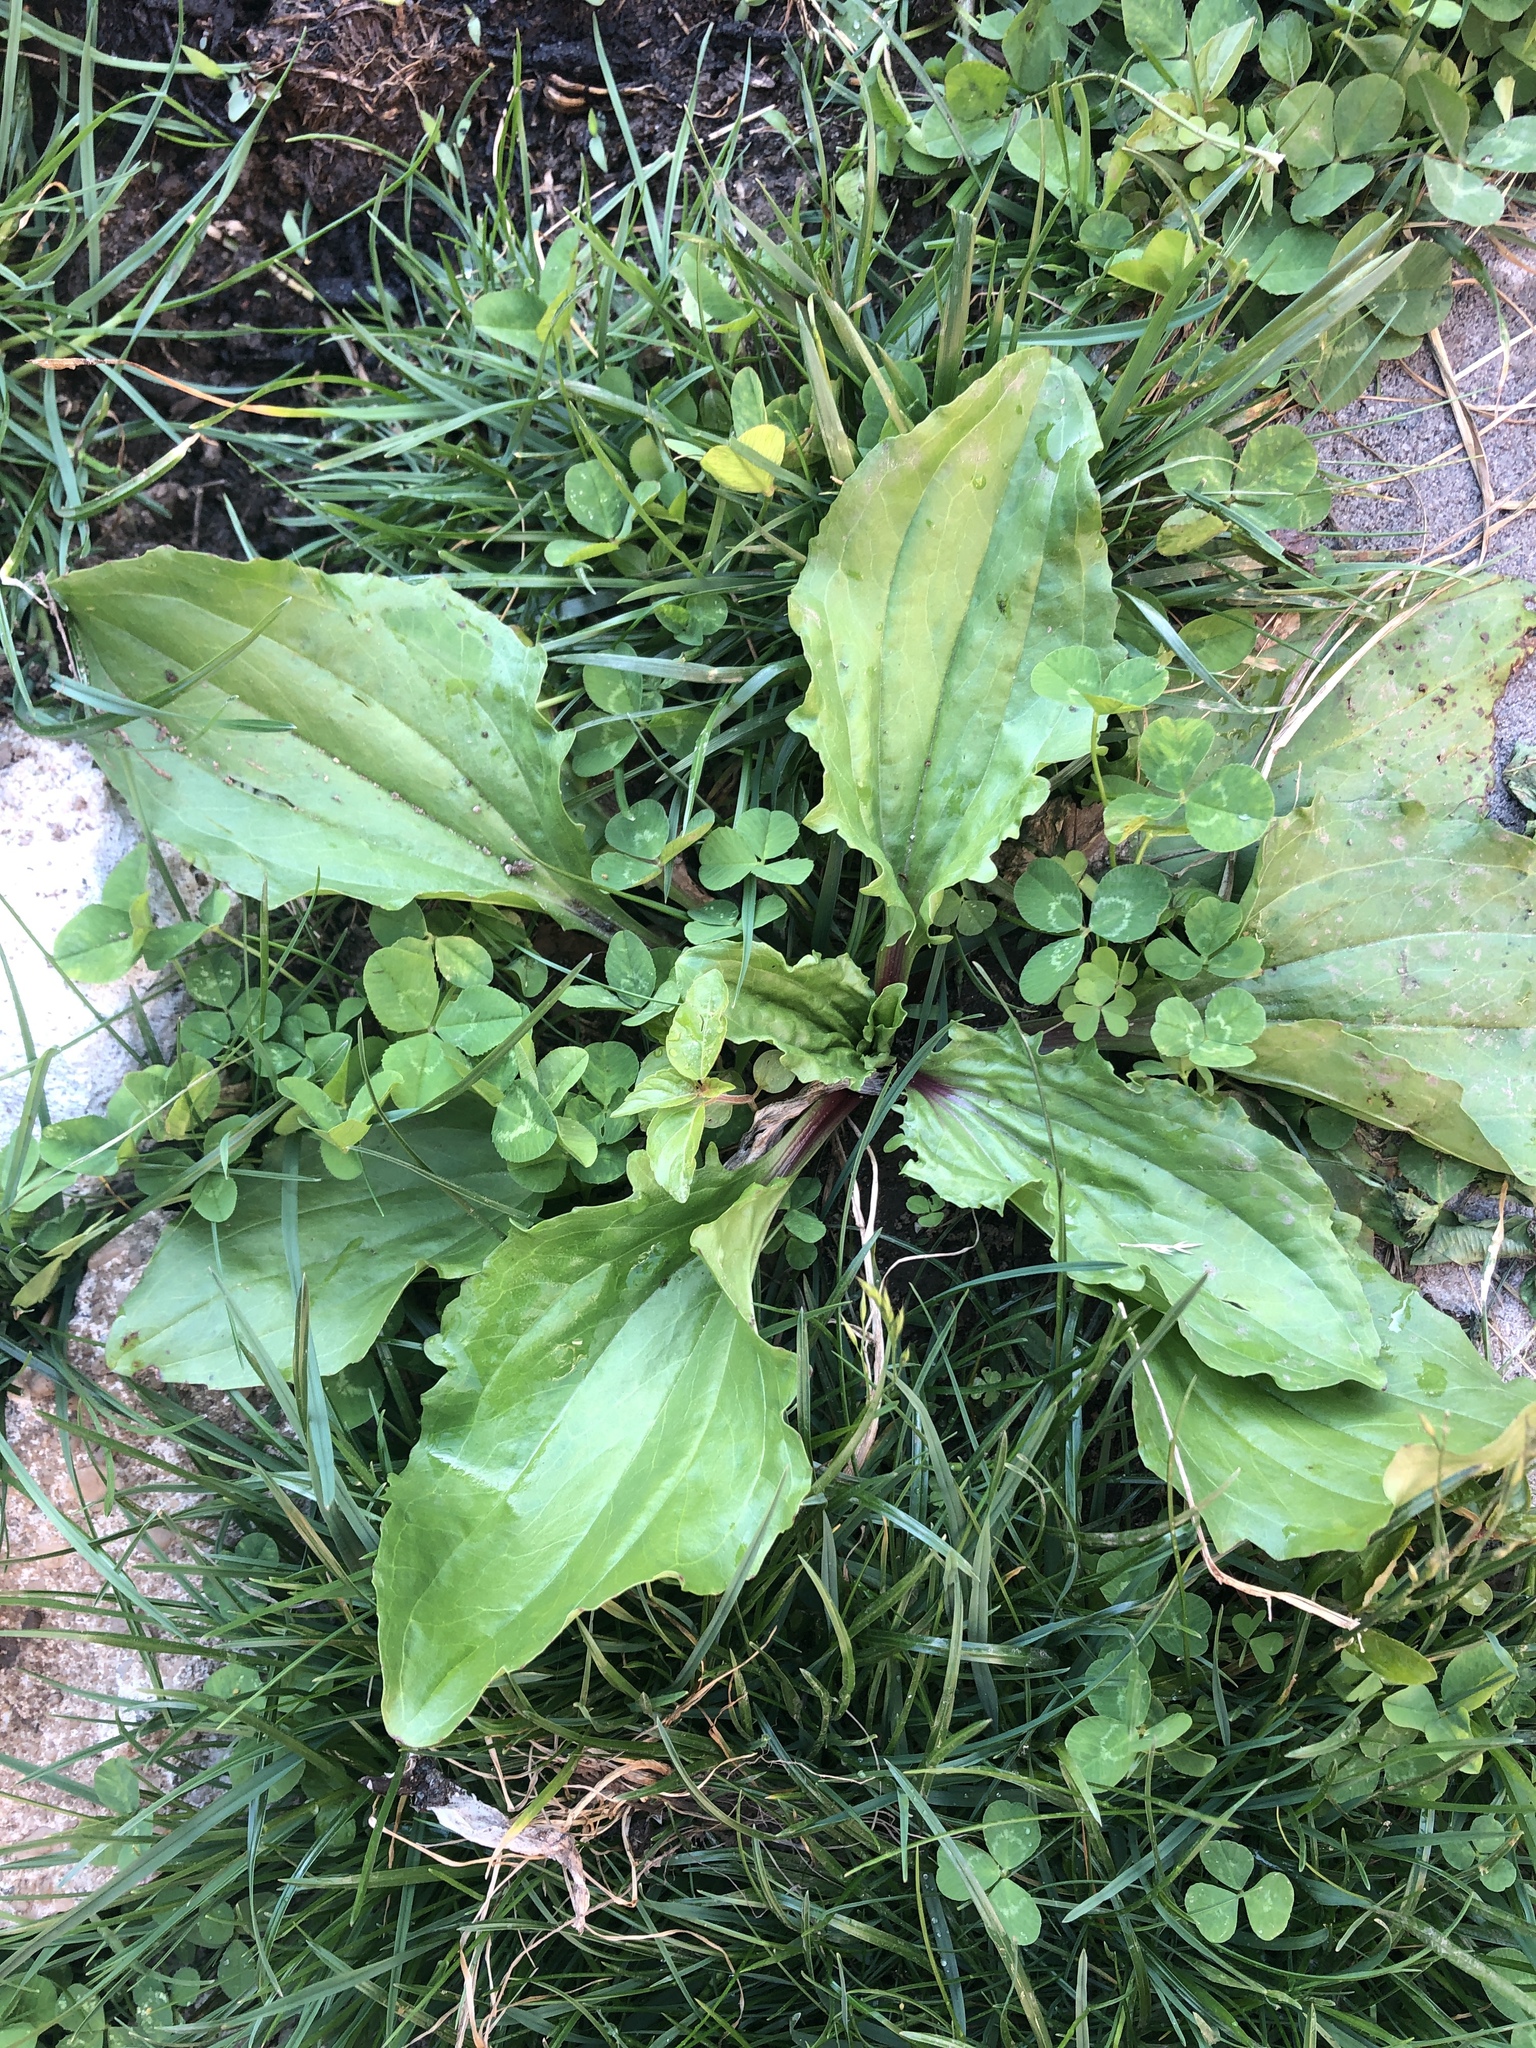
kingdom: Plantae
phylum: Tracheophyta
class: Magnoliopsida
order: Lamiales
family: Plantaginaceae
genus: Plantago
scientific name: Plantago rugelii
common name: American plantain
